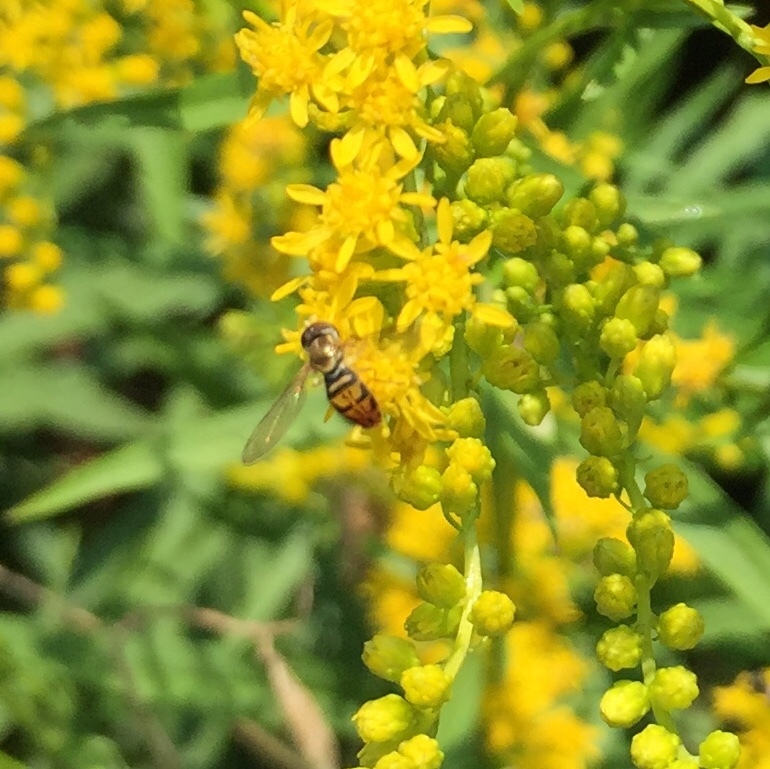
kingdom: Animalia
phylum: Arthropoda
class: Insecta
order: Diptera
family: Syrphidae
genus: Toxomerus
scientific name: Toxomerus marginatus
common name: Syrphid fly
